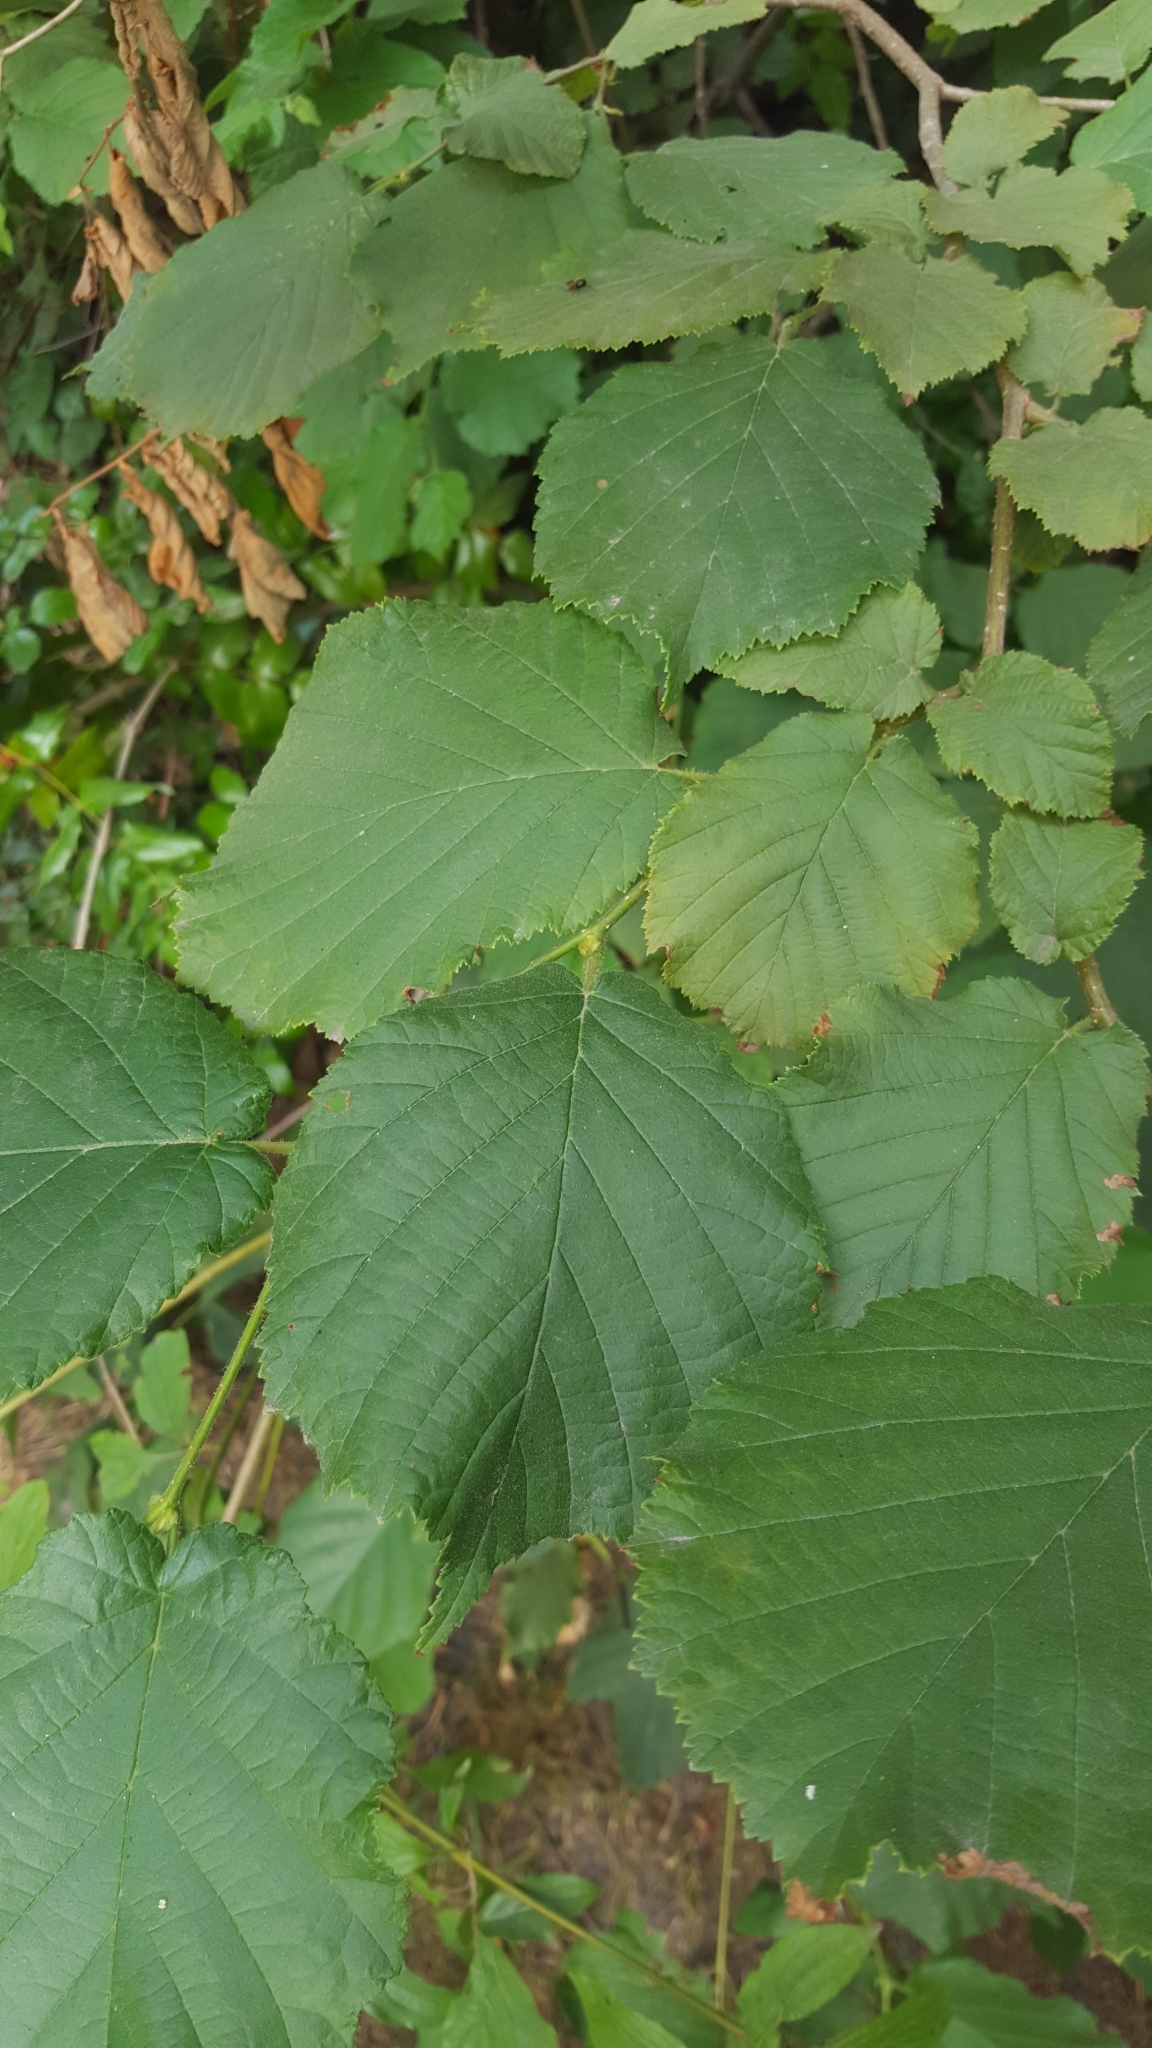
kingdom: Plantae
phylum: Tracheophyta
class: Magnoliopsida
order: Fagales
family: Betulaceae
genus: Corylus
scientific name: Corylus avellana
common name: European hazel
